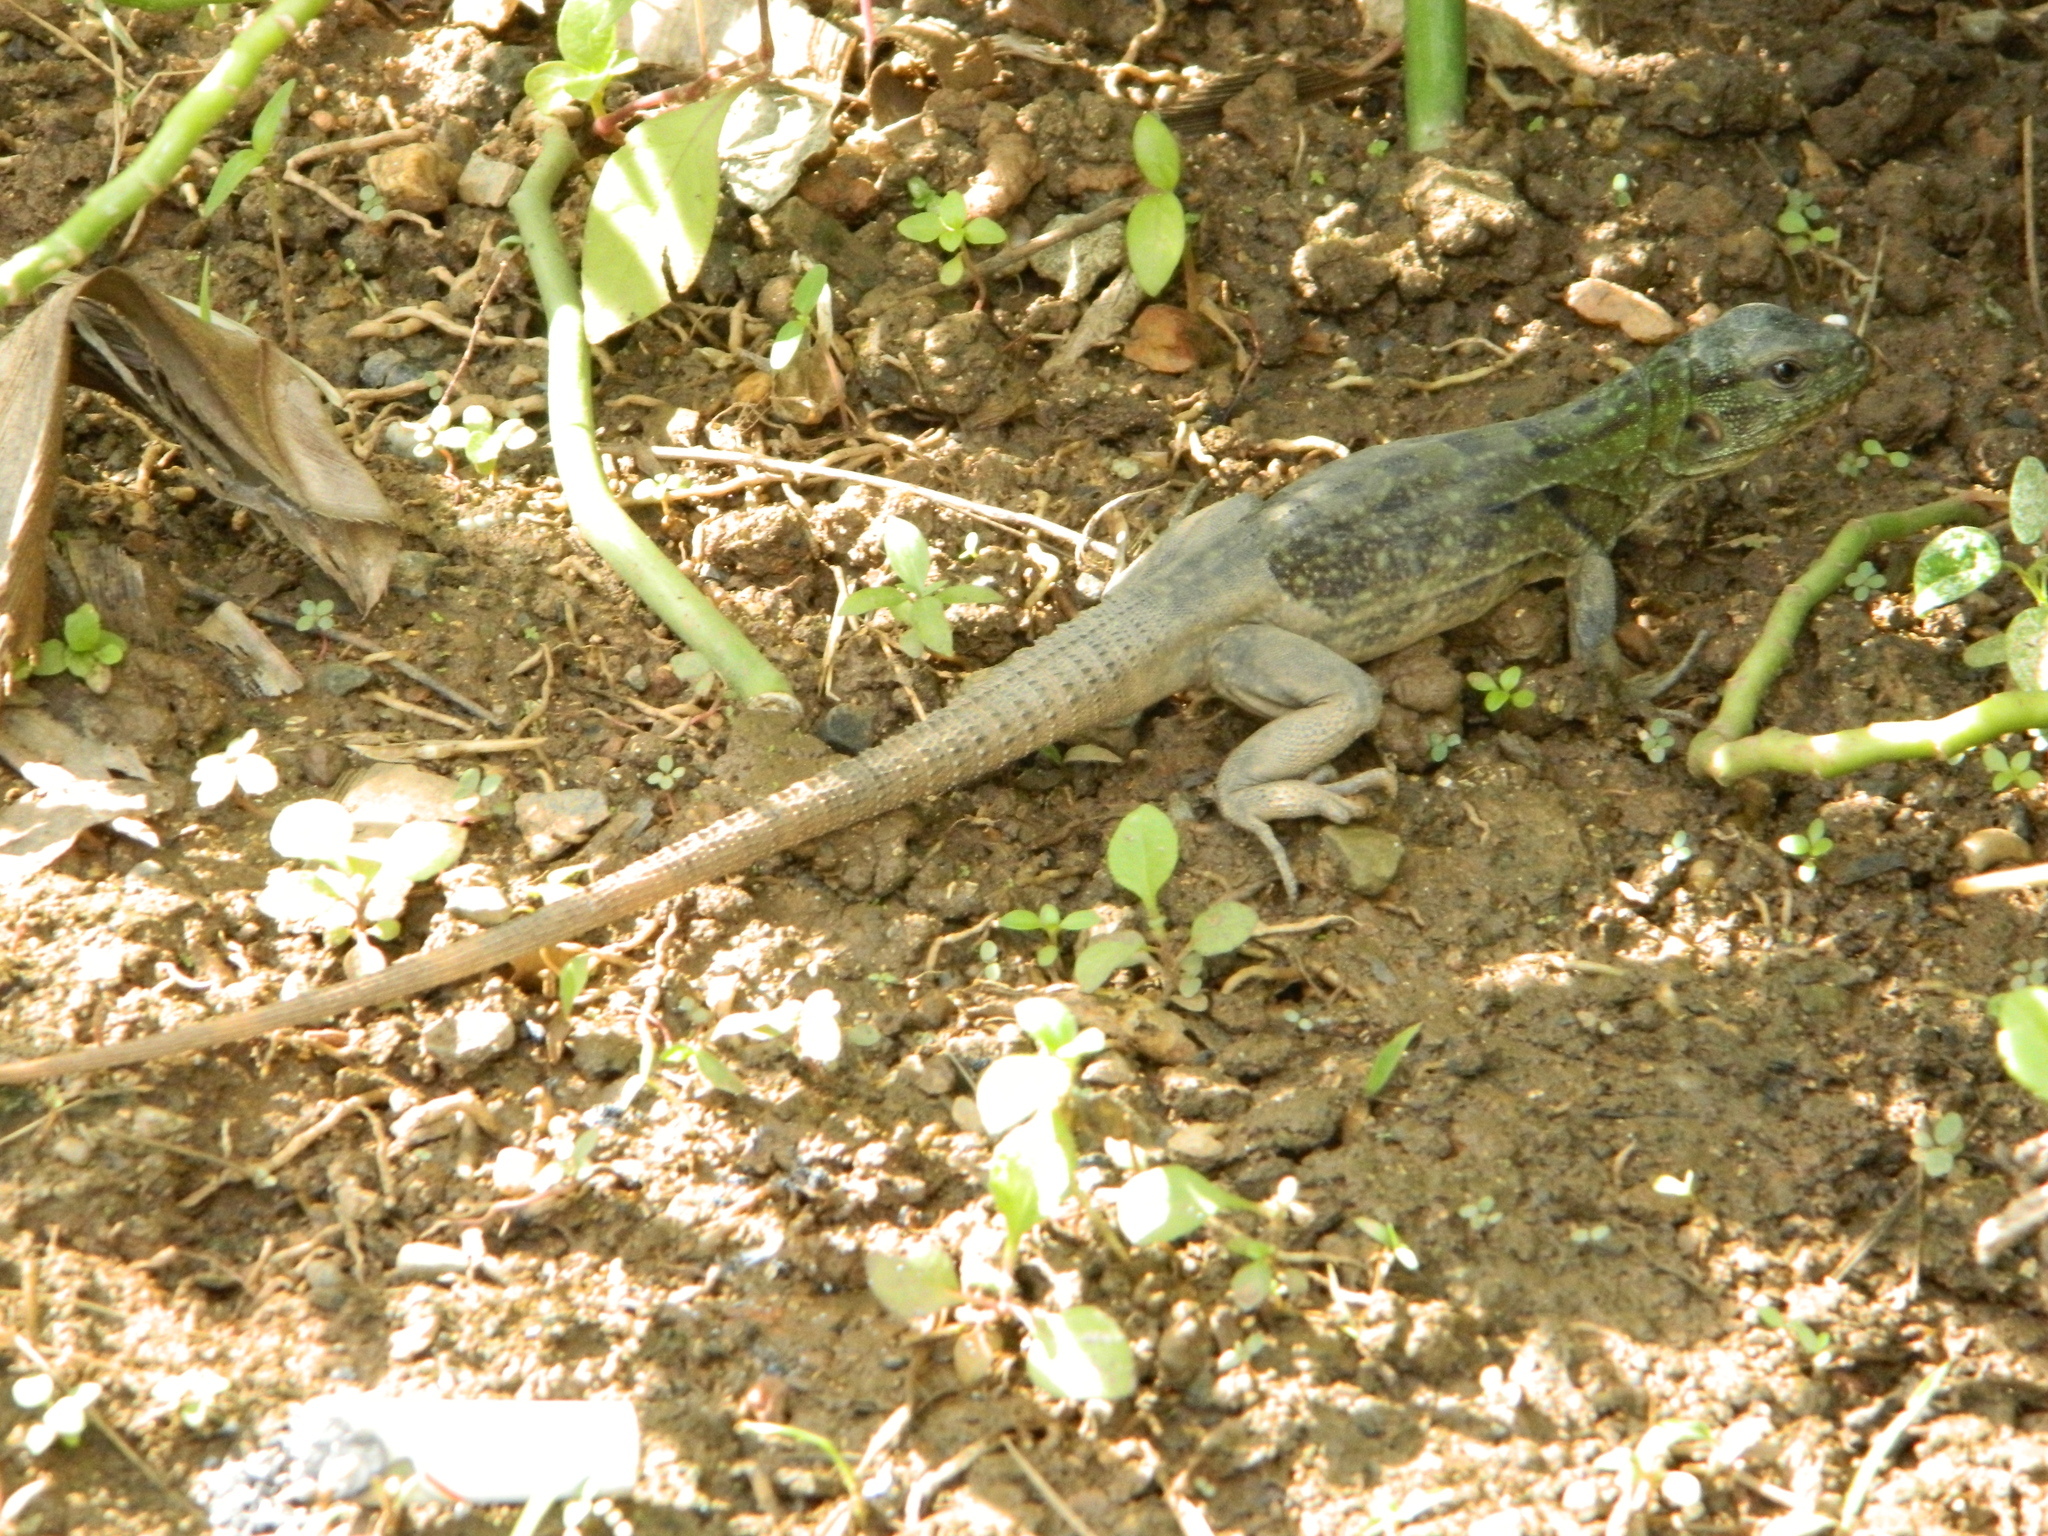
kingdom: Animalia
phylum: Chordata
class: Squamata
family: Iguanidae
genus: Ctenosaura
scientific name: Ctenosaura oedirhina
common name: Roatan spiny-tailed iguana
